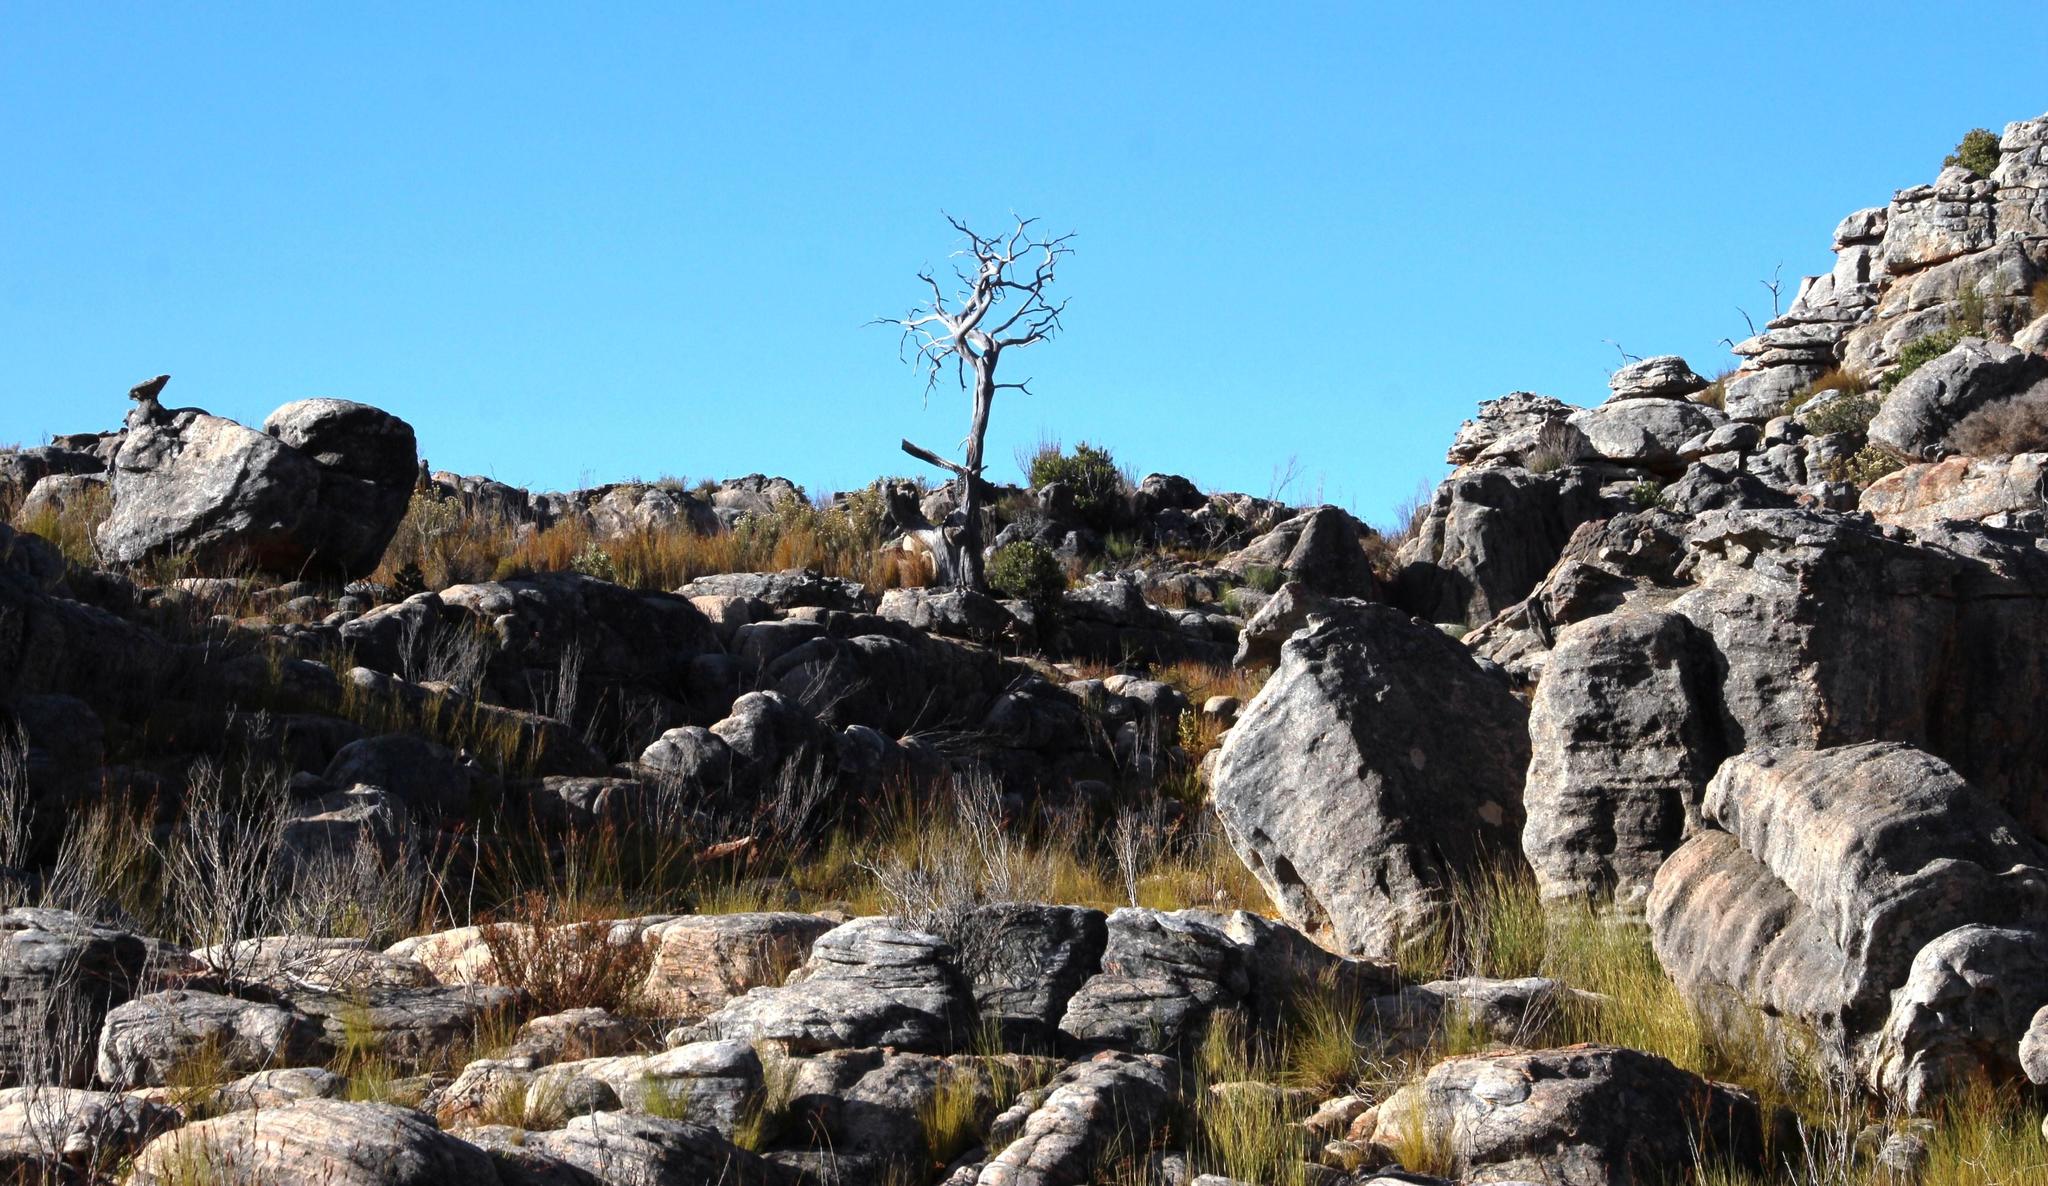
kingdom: Plantae
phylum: Tracheophyta
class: Pinopsida
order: Pinales
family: Cupressaceae
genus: Widdringtonia
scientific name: Widdringtonia nodiflora
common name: Cape cypress
